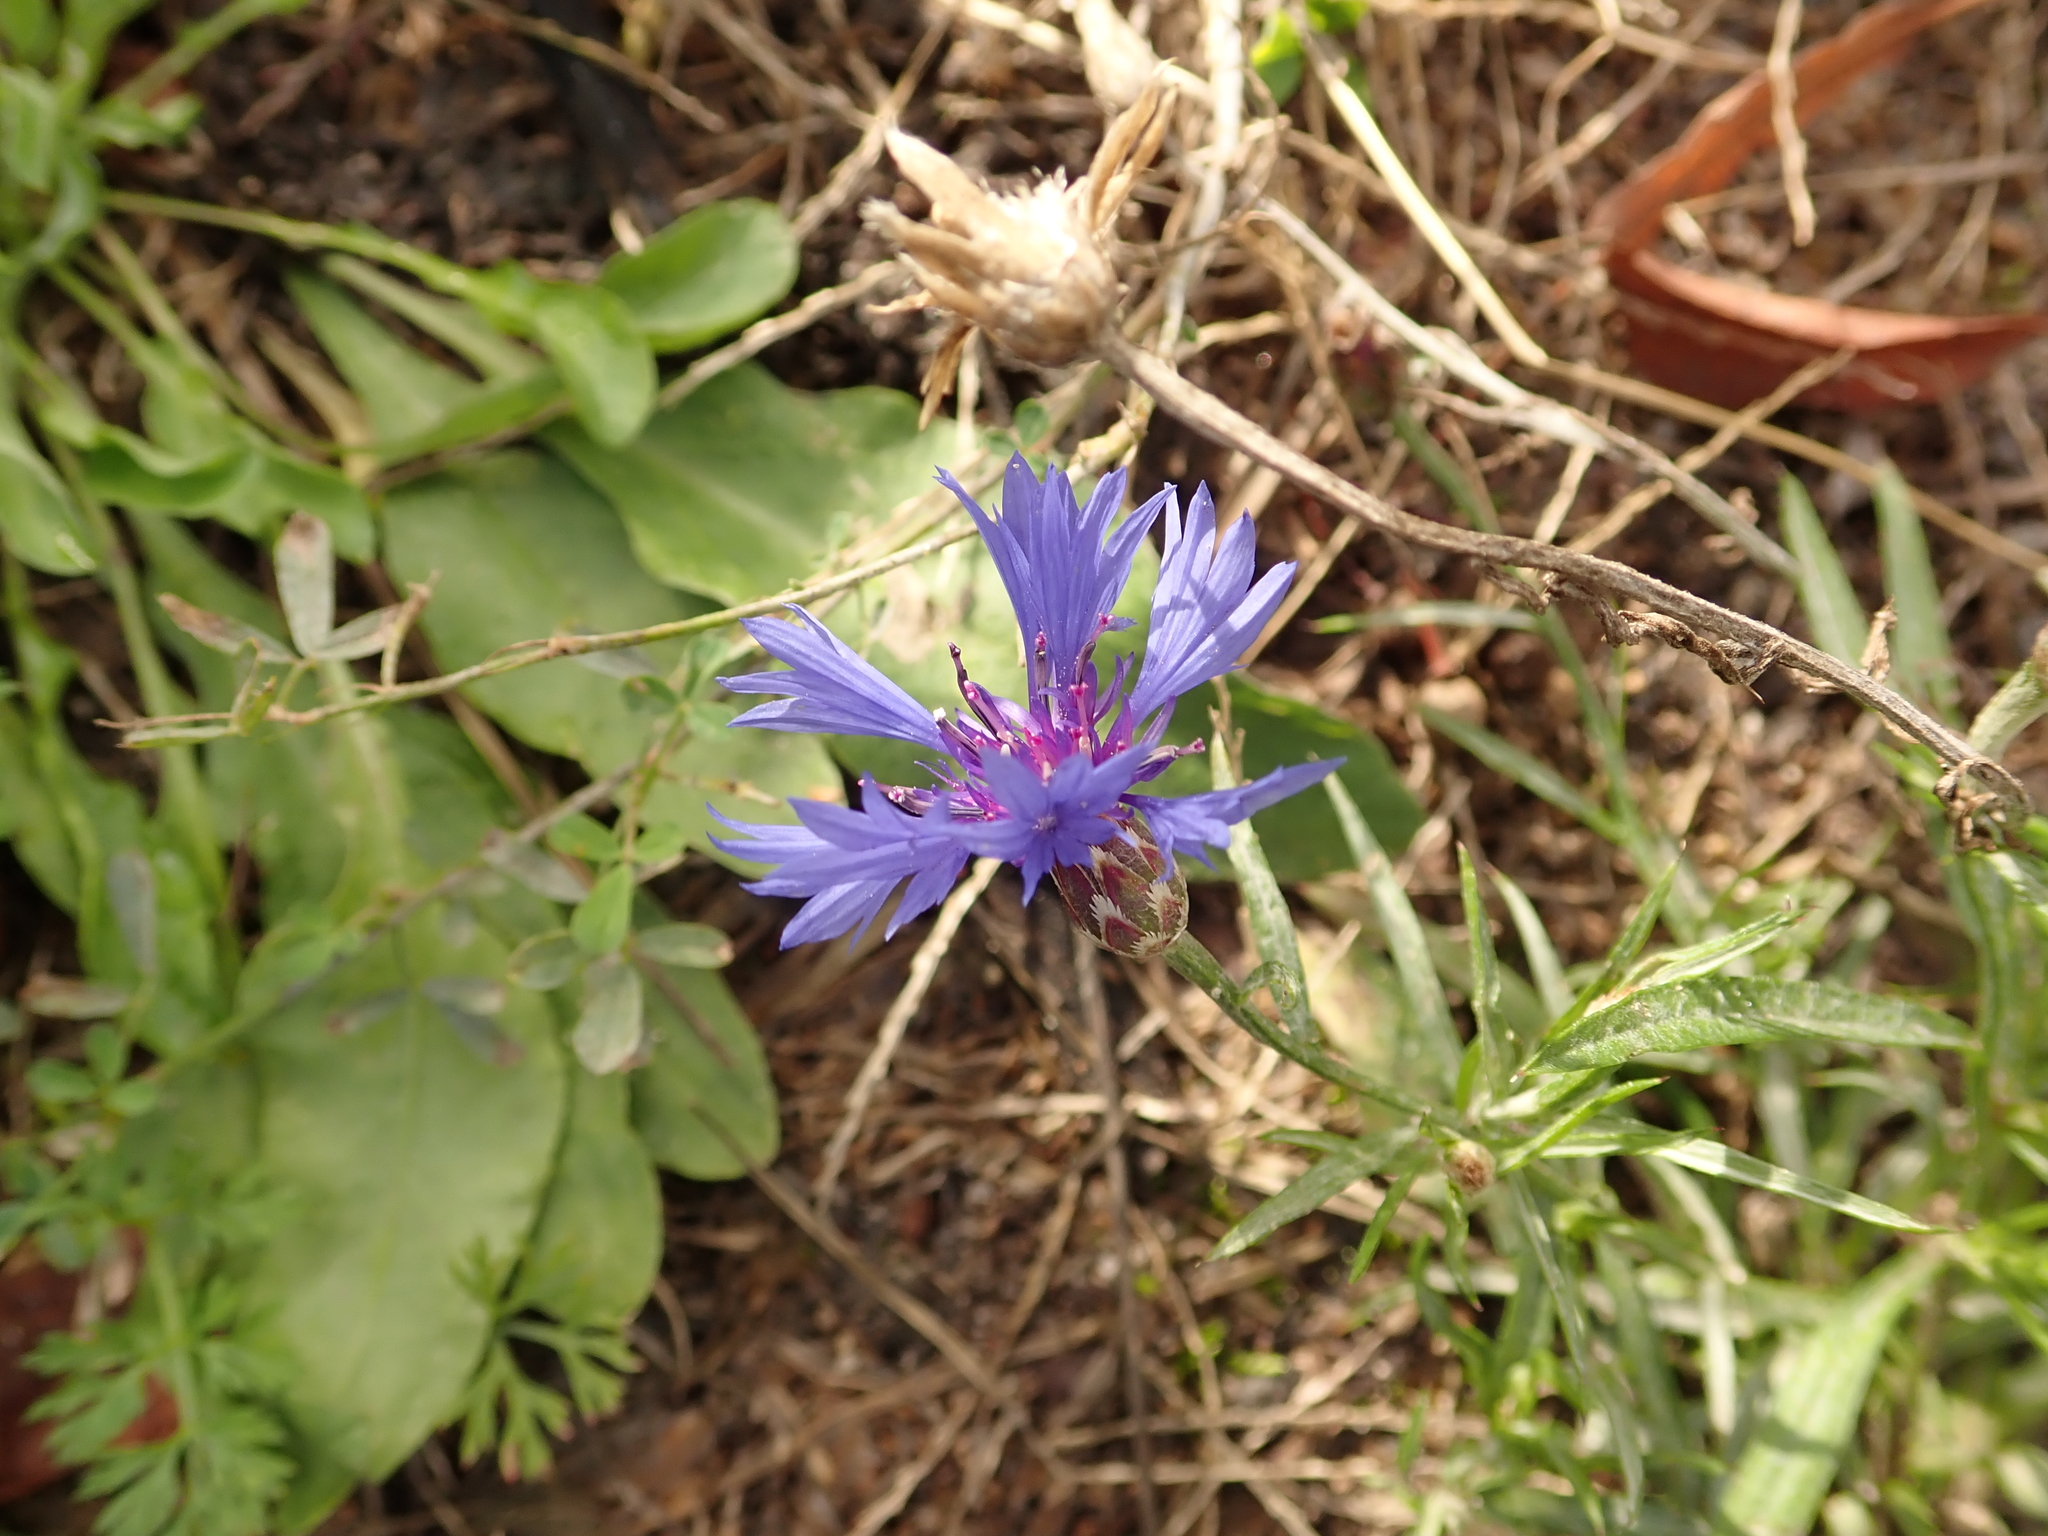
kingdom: Plantae
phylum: Tracheophyta
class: Magnoliopsida
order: Asterales
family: Asteraceae
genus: Centaurea
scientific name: Centaurea cyanus
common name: Cornflower
